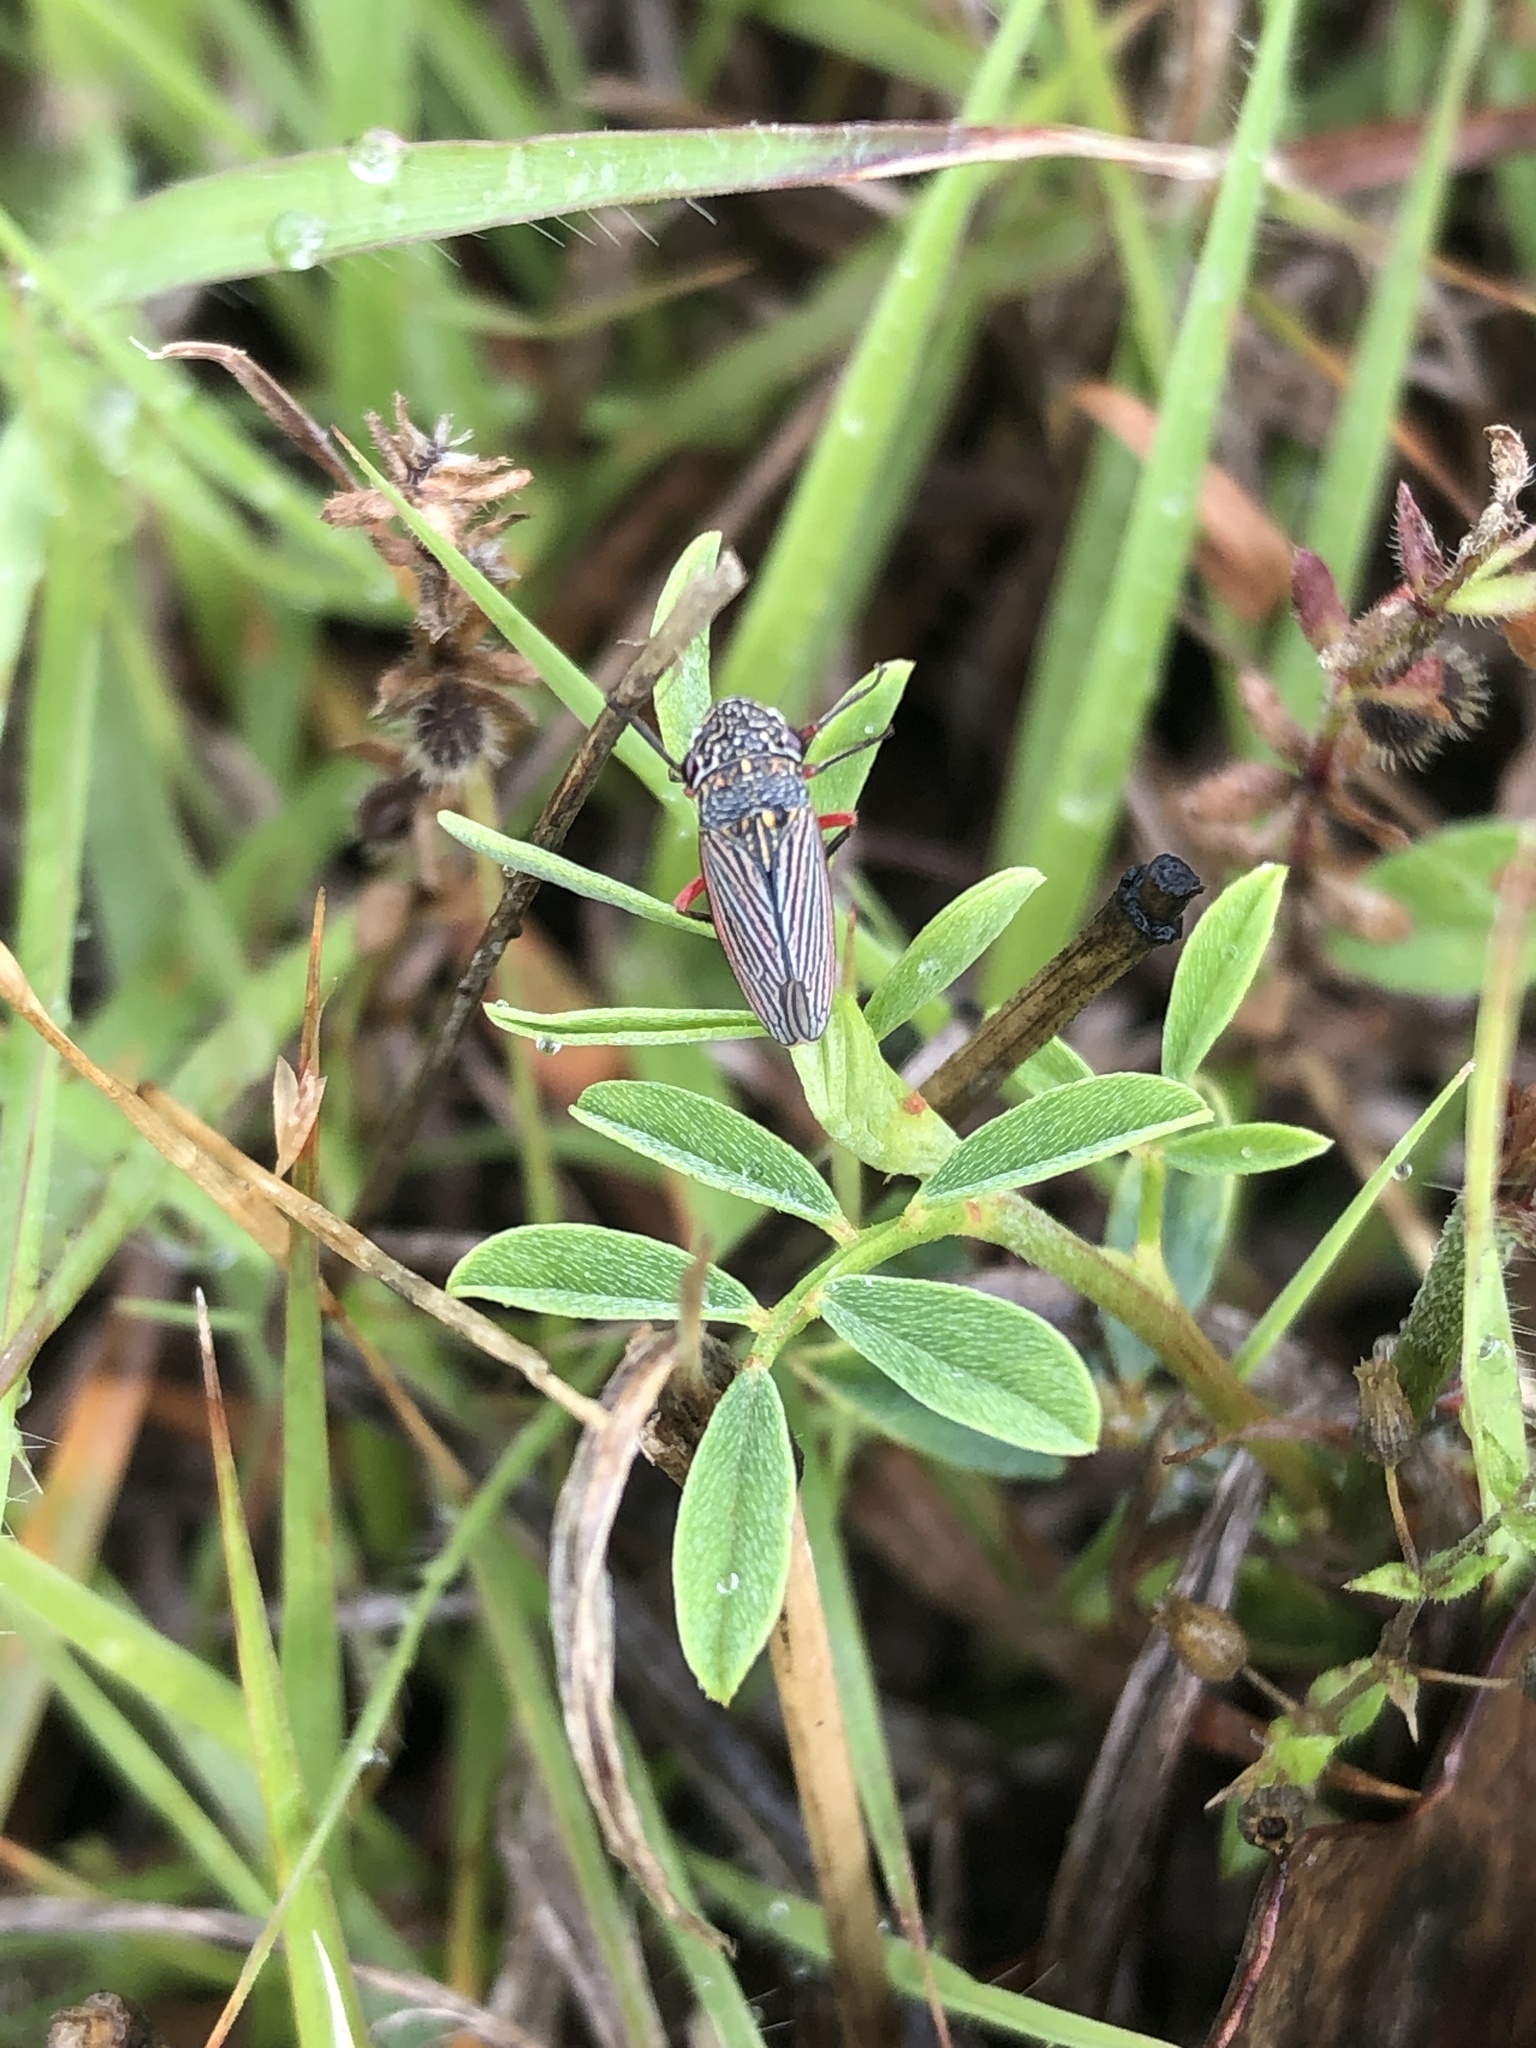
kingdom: Animalia
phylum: Arthropoda
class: Insecta
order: Hemiptera
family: Cicadellidae
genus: Cuerna
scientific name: Cuerna costalis
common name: Lateral-lined sharpshooter
